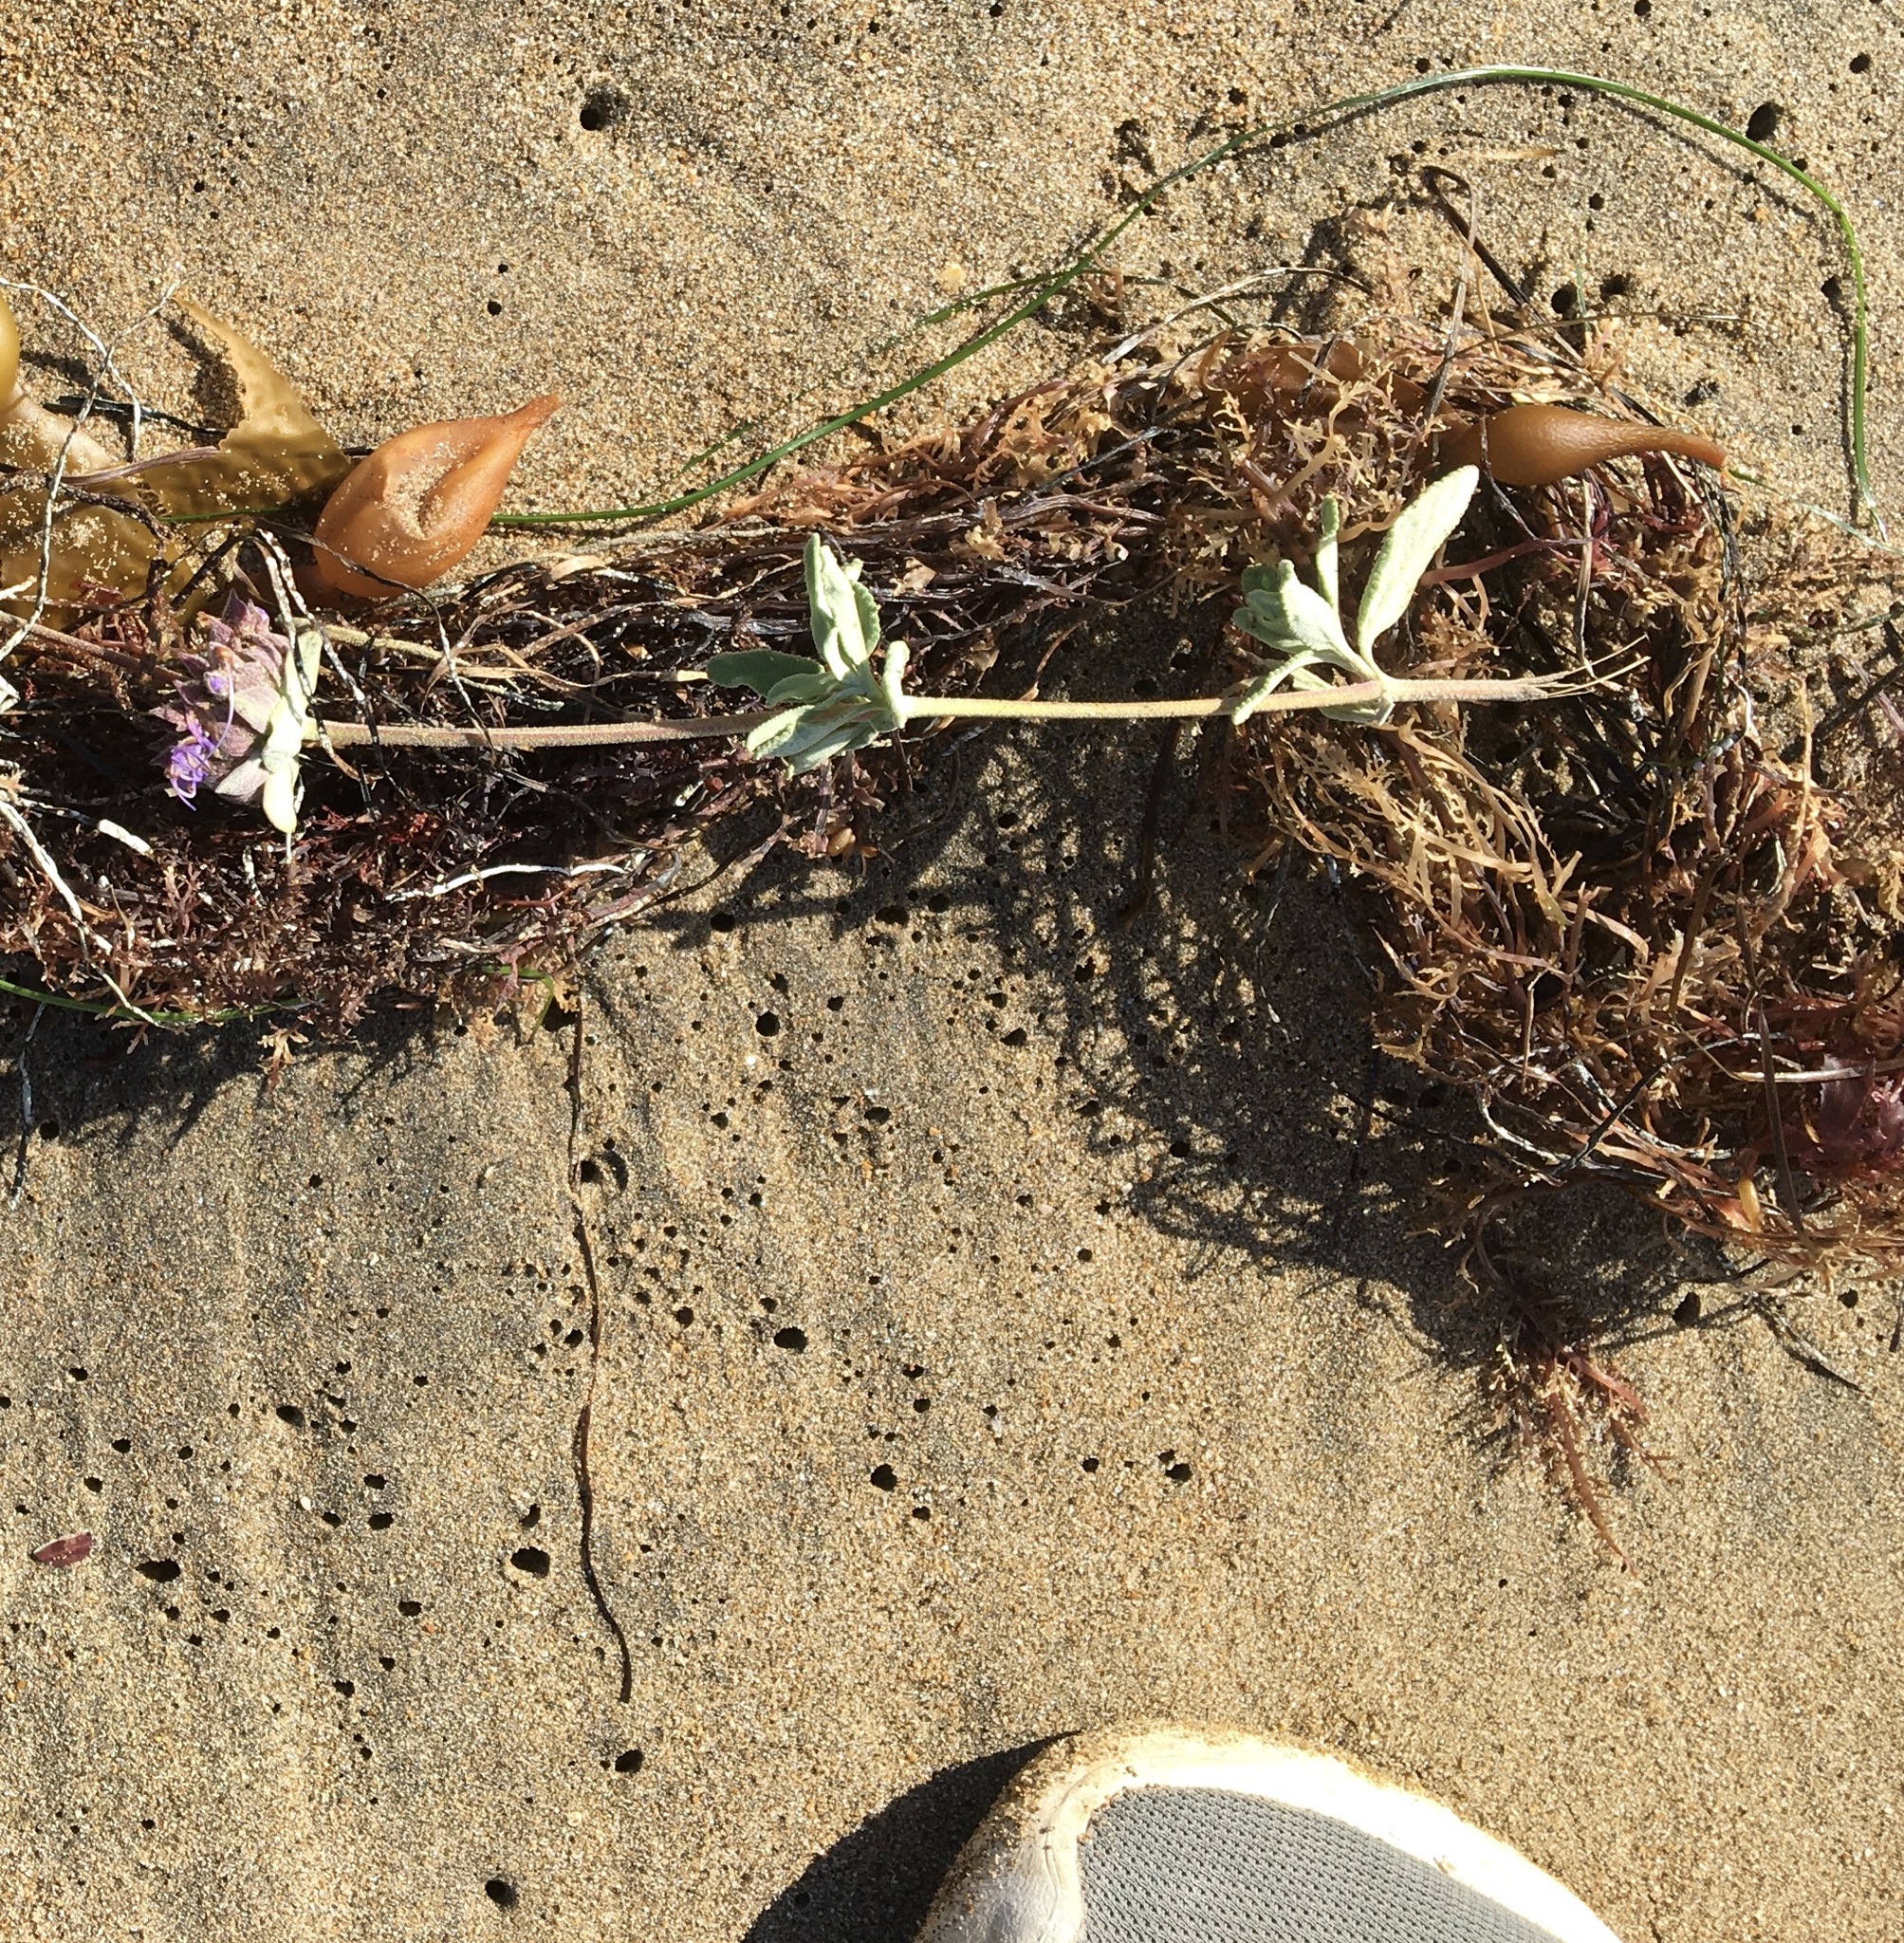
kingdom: Plantae
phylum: Tracheophyta
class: Magnoliopsida
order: Lamiales
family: Lamiaceae
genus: Salvia
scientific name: Salvia leucophylla
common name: Purple sage
